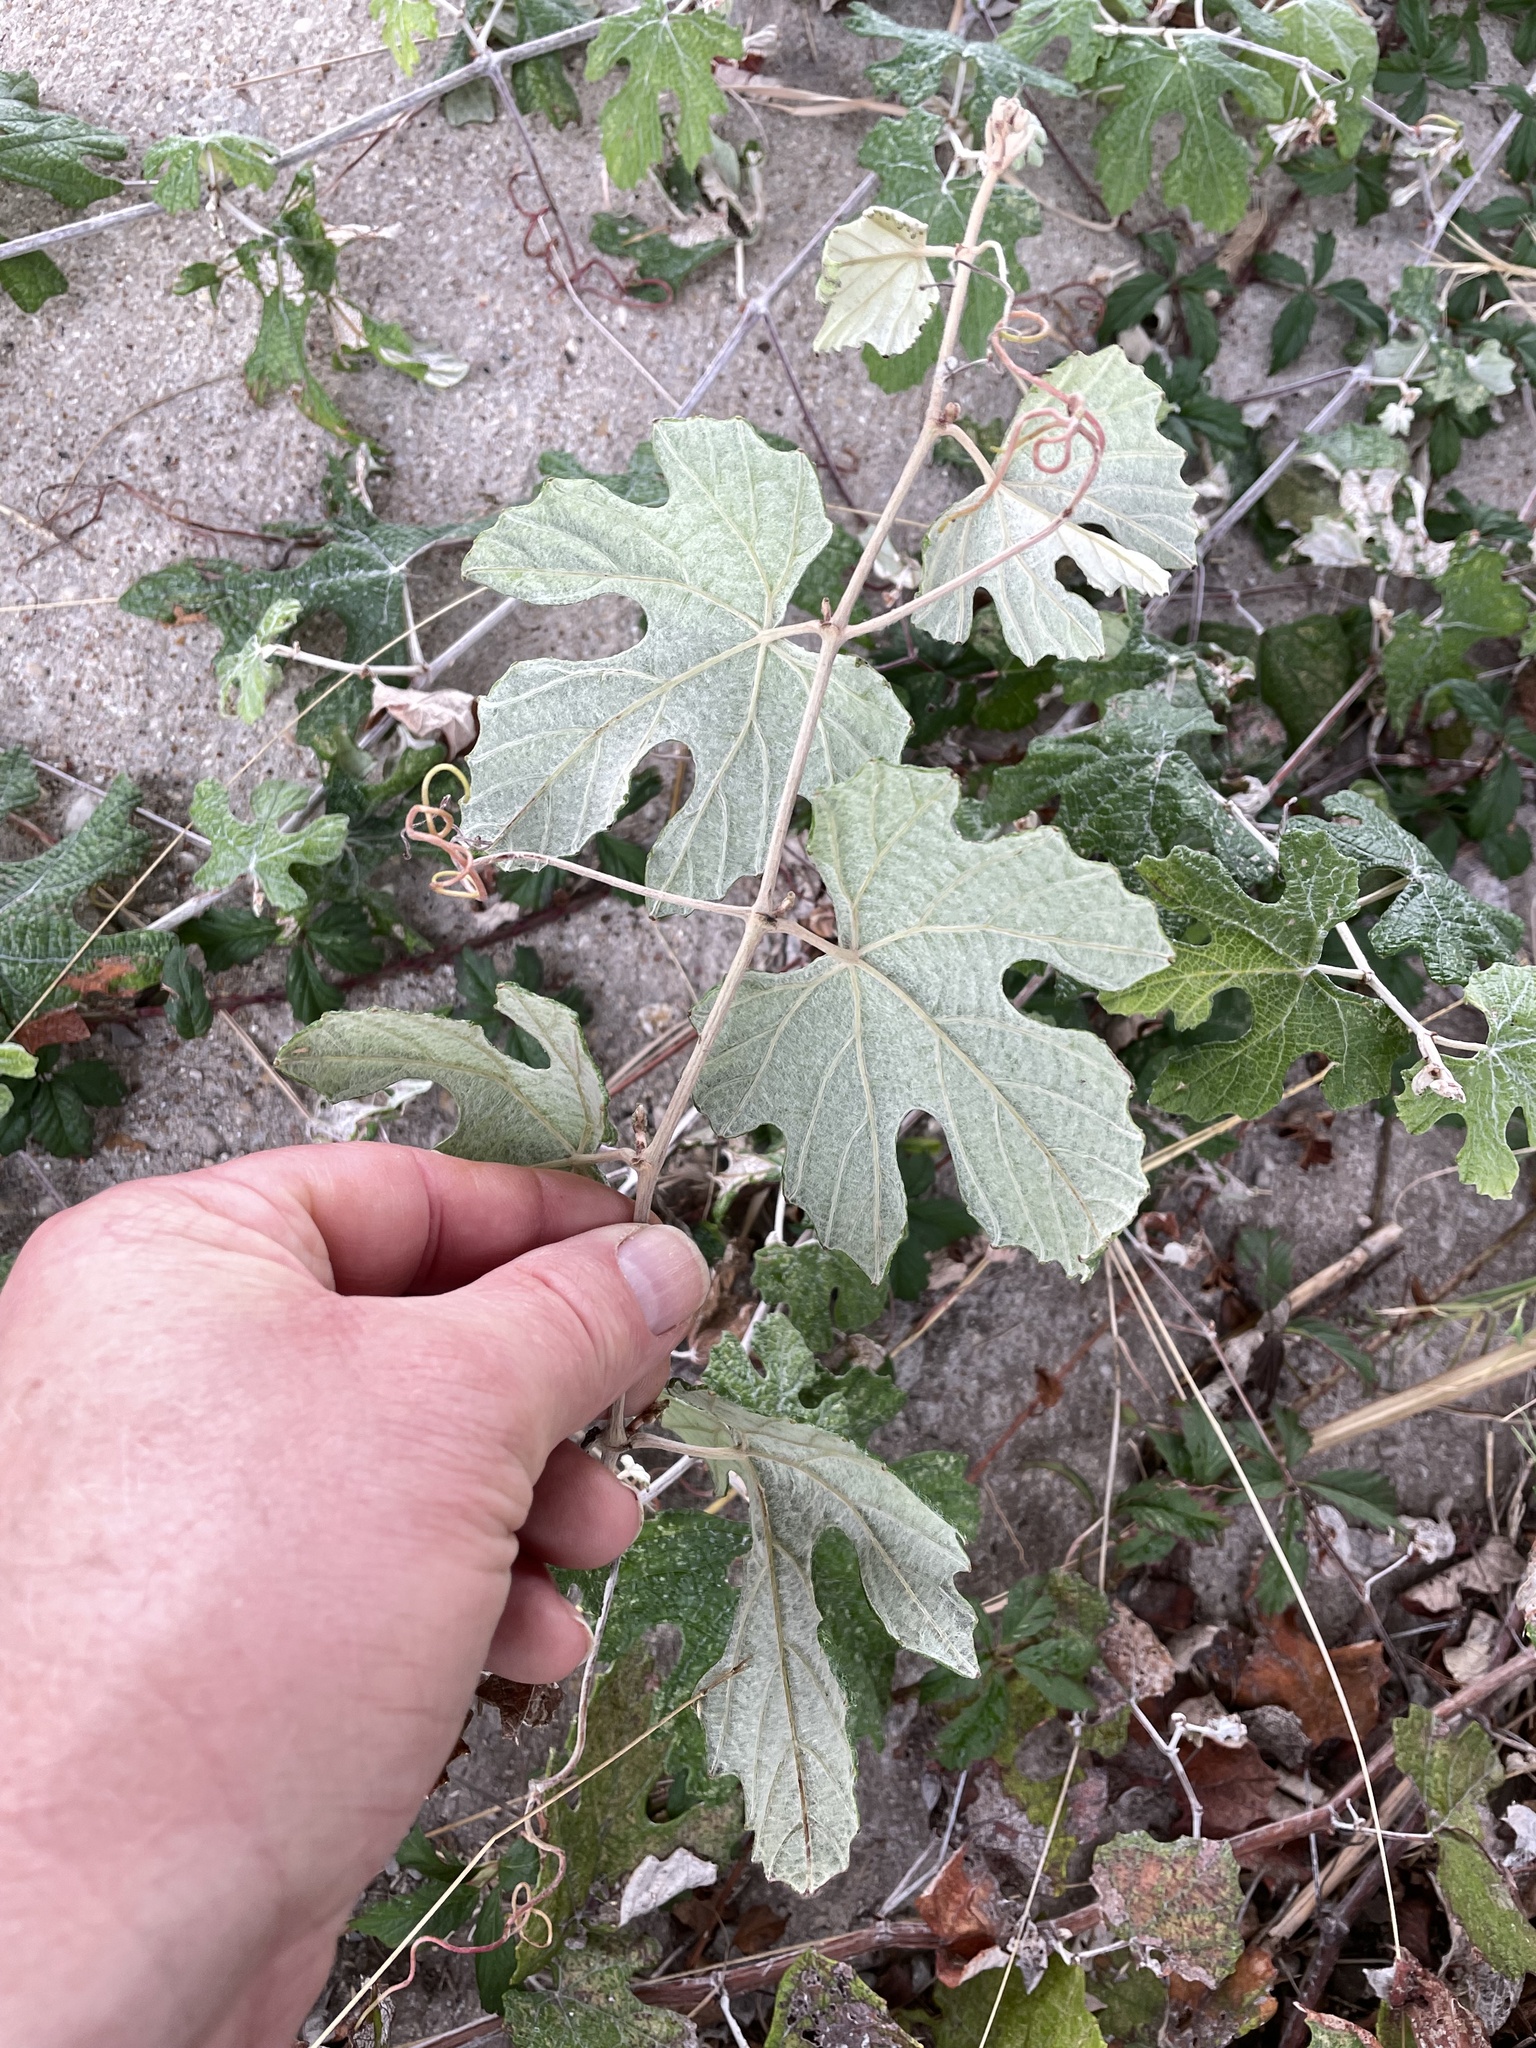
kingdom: Plantae
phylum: Tracheophyta
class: Magnoliopsida
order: Vitales
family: Vitaceae
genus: Vitis
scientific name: Vitis mustangensis
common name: Mustang grape
